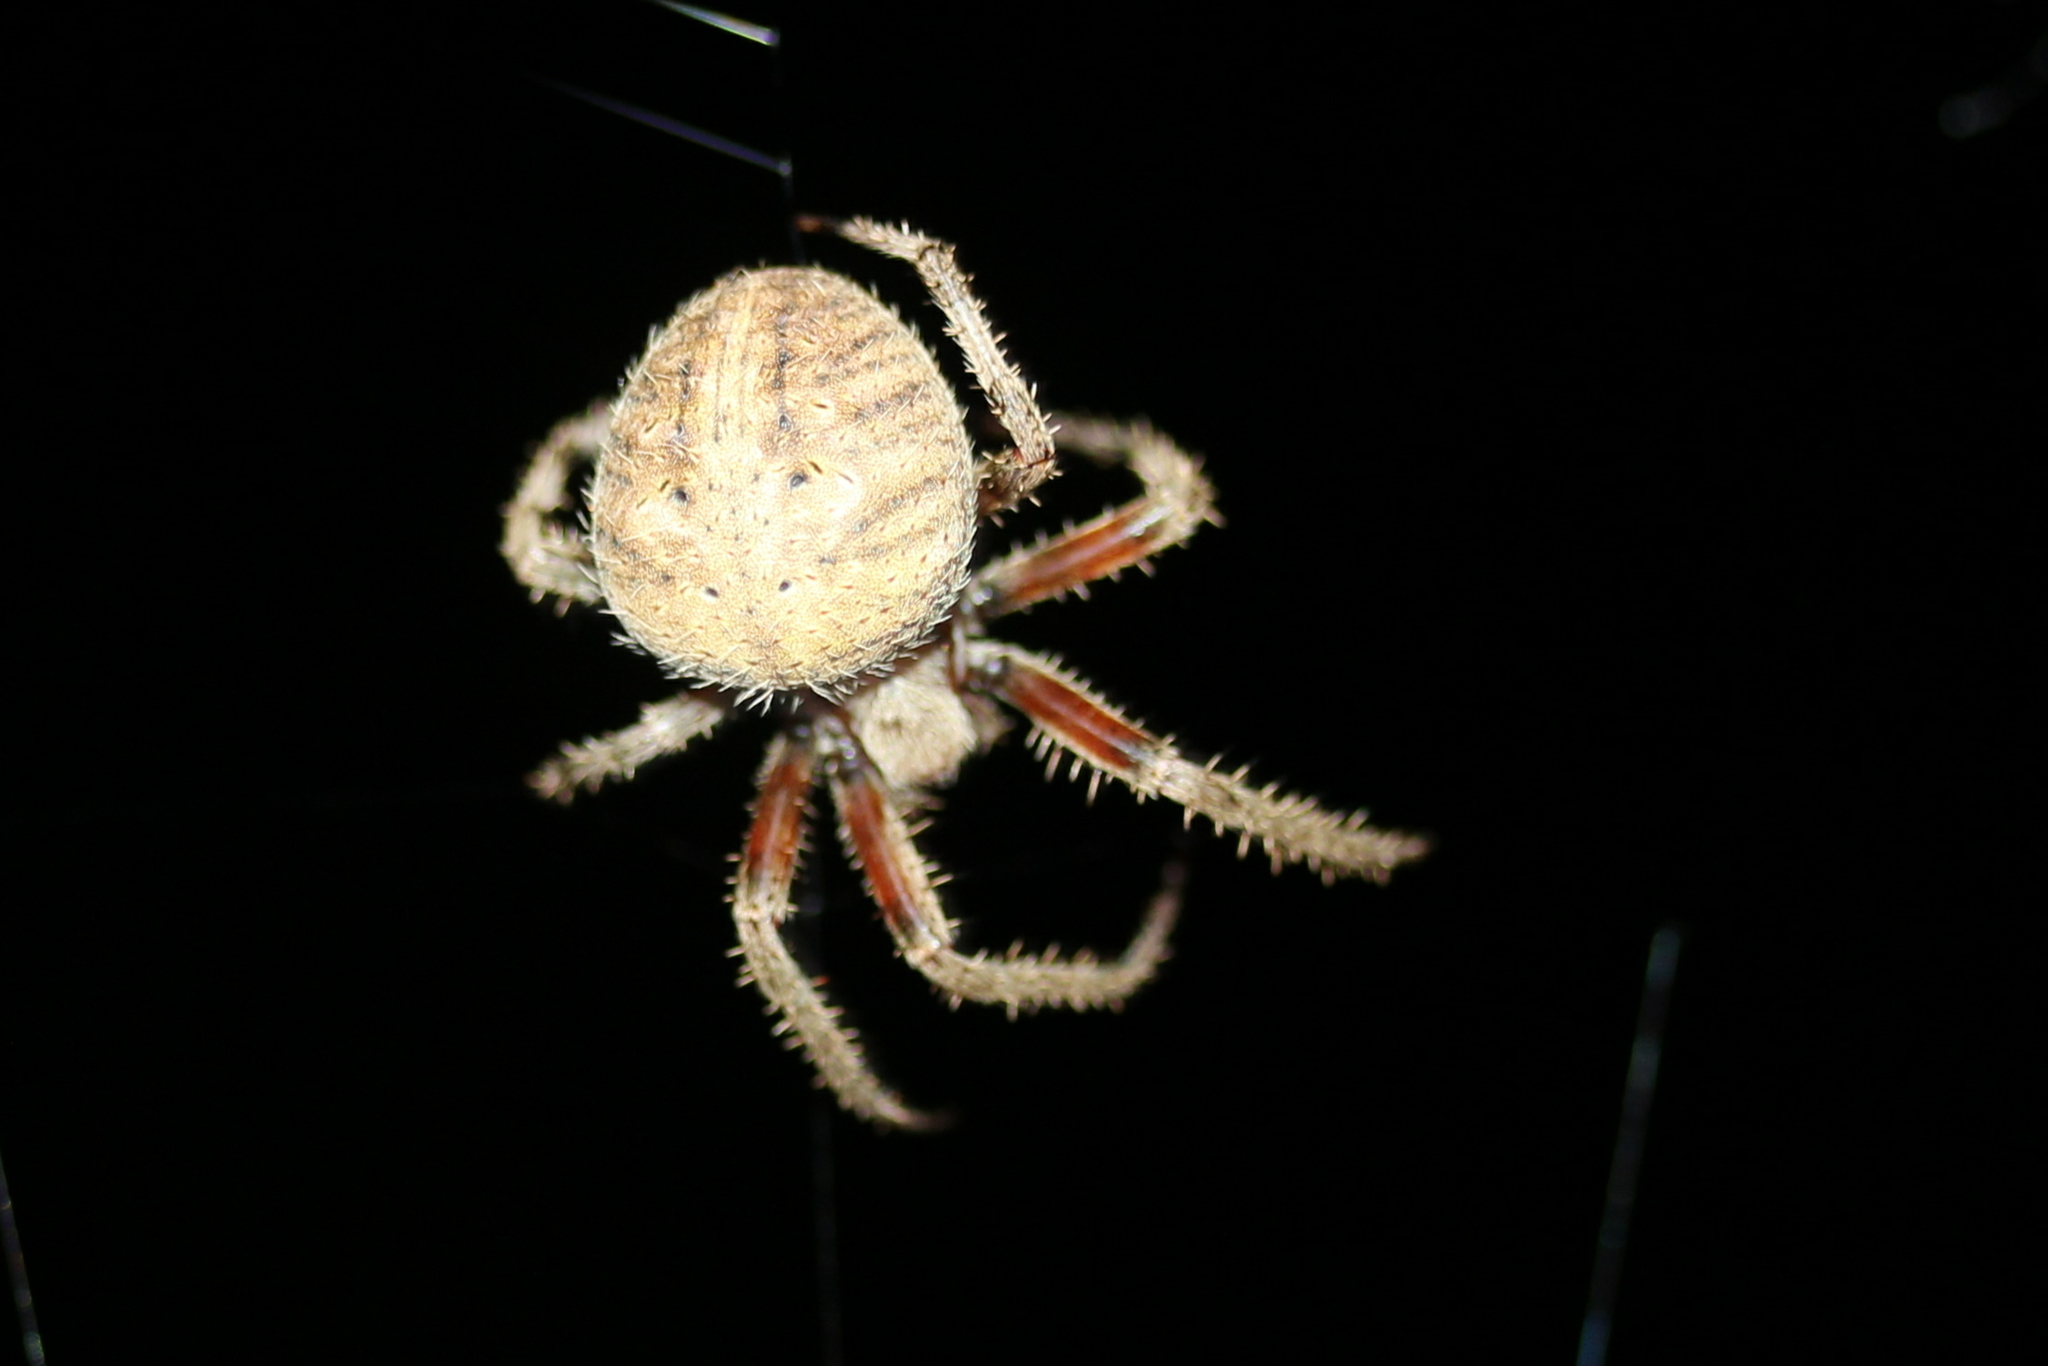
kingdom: Animalia
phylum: Arthropoda
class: Arachnida
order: Araneae
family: Araneidae
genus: Neoscona
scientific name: Neoscona crucifera
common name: Spotted orbweaver
